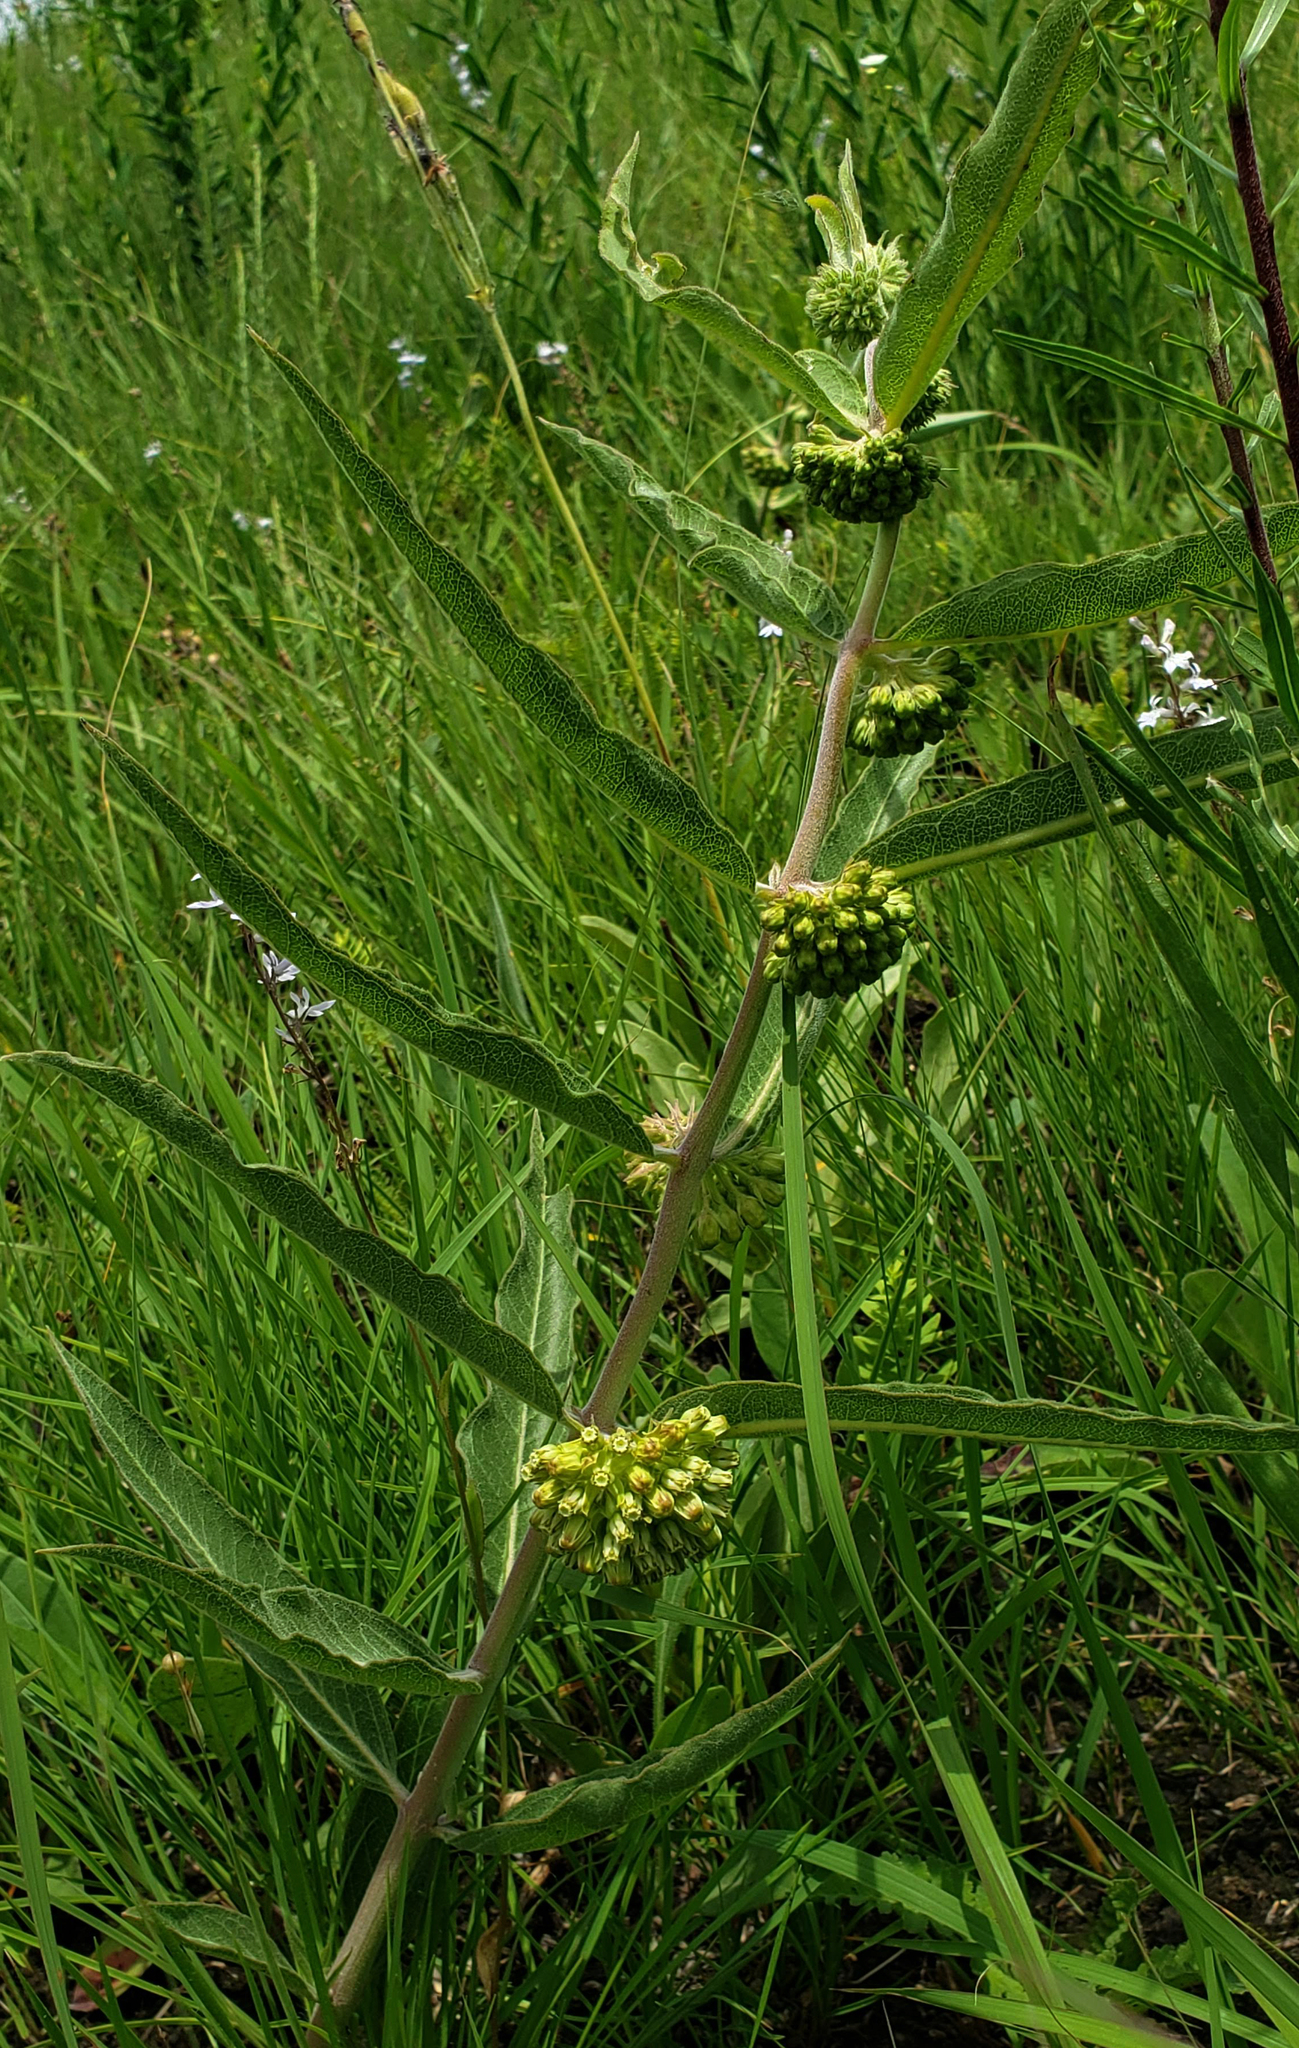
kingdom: Plantae
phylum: Tracheophyta
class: Magnoliopsida
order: Gentianales
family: Apocynaceae
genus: Asclepias
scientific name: Asclepias viridiflora
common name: Green comet milkweed
